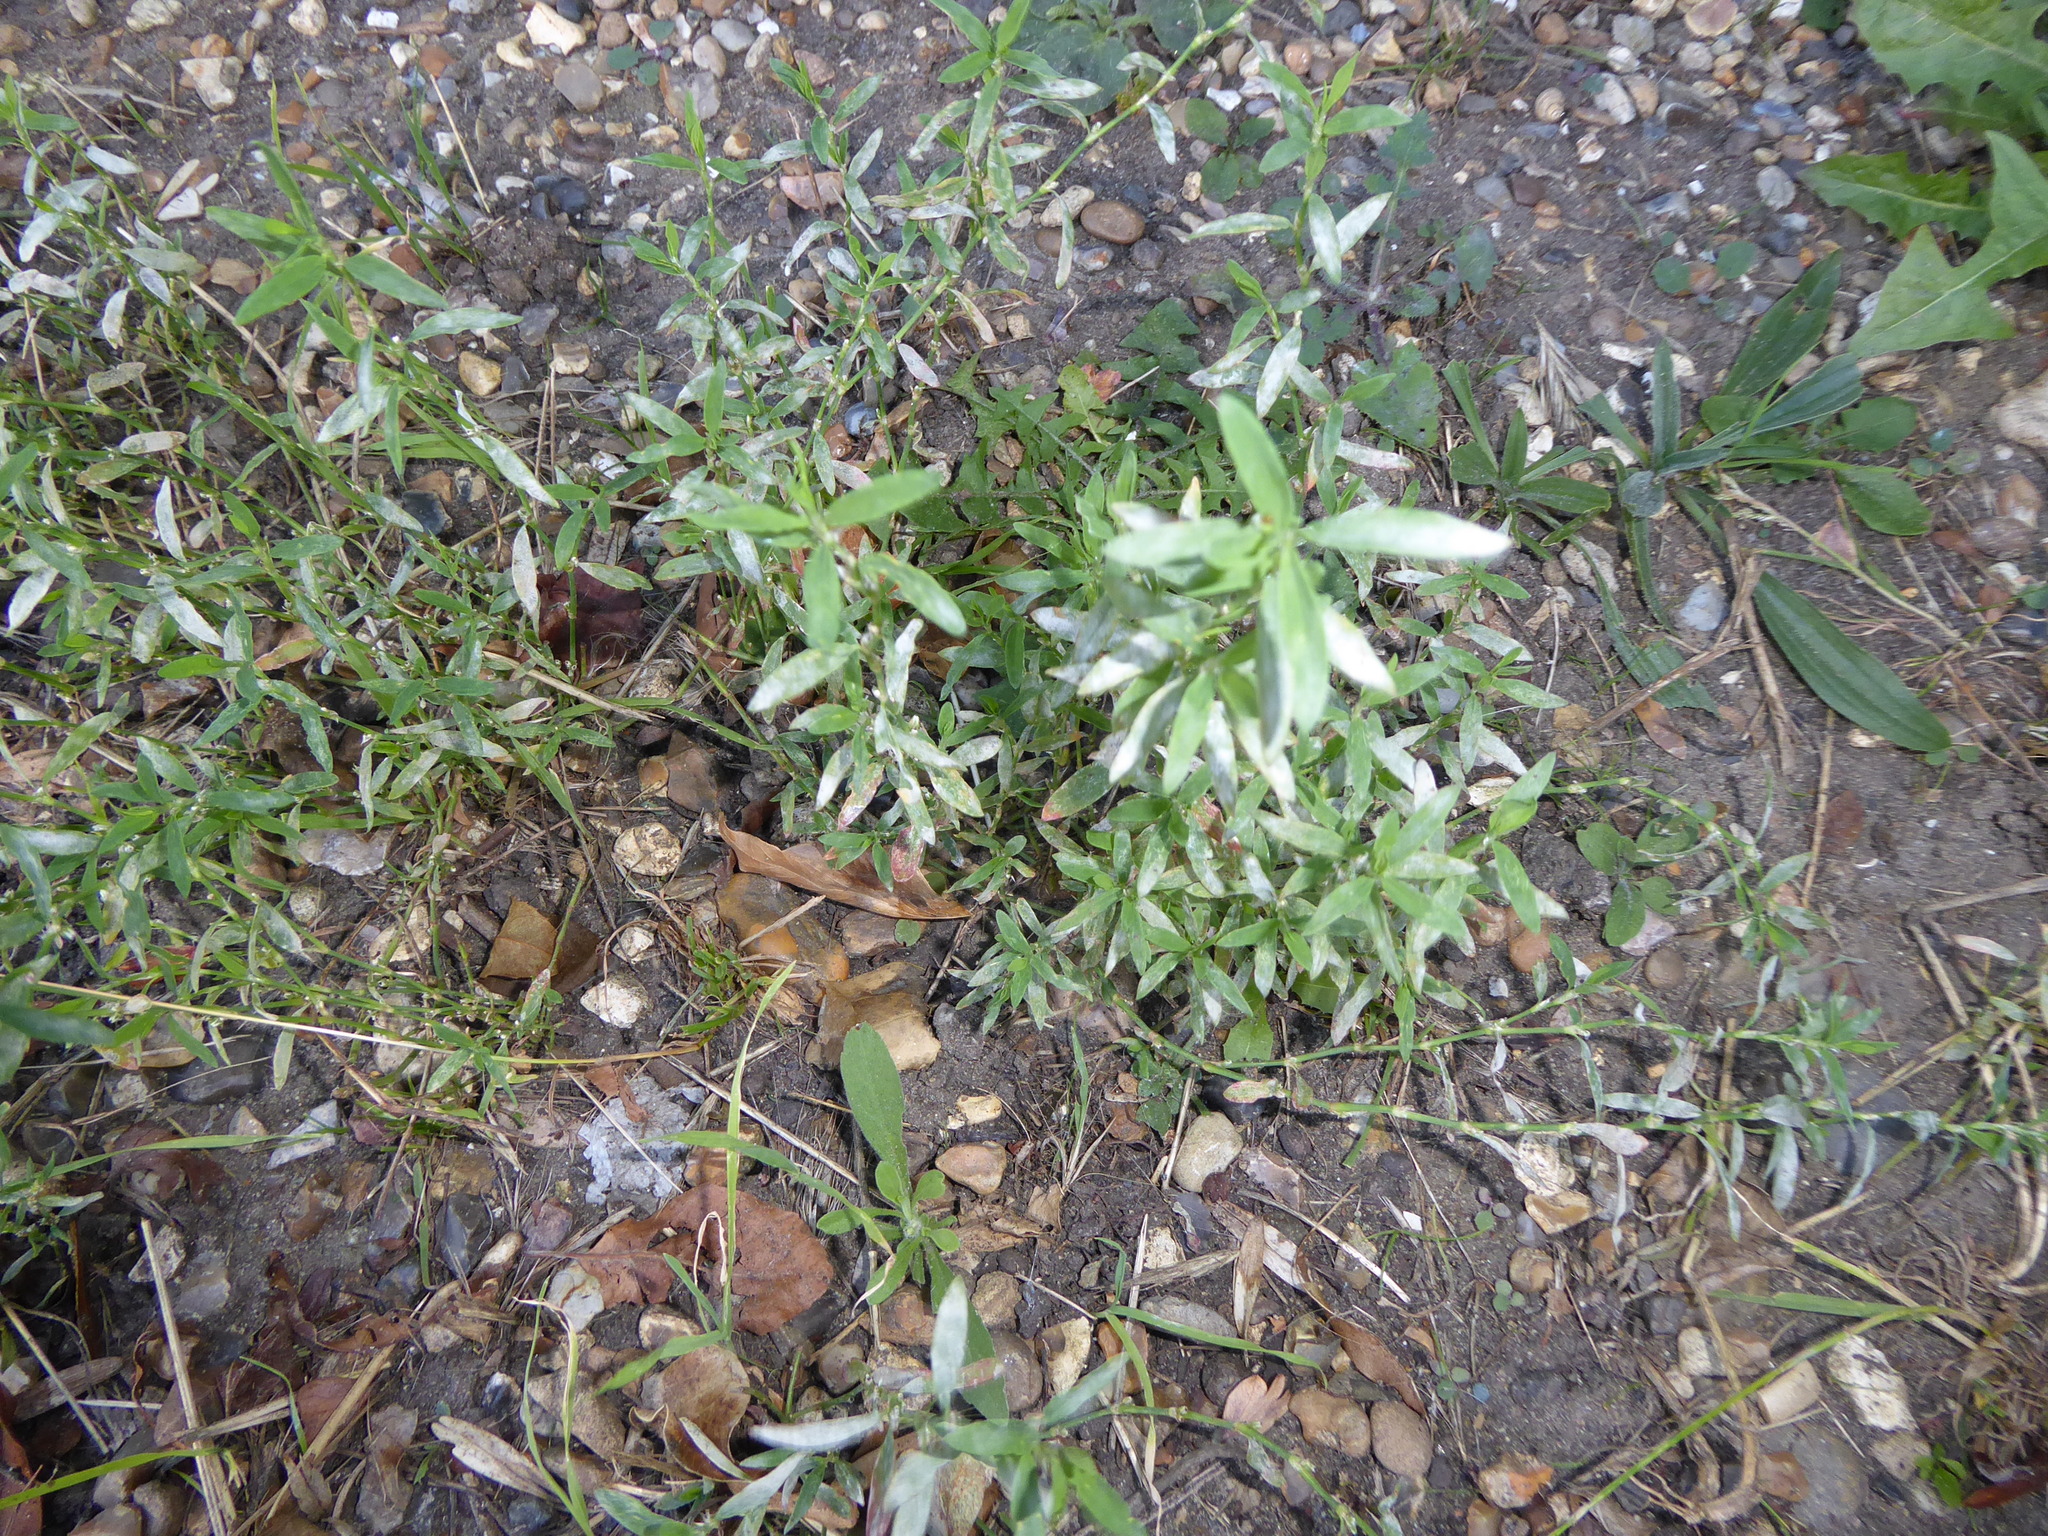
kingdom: Plantae
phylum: Tracheophyta
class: Magnoliopsida
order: Caryophyllales
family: Polygonaceae
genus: Polygonum
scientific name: Polygonum
